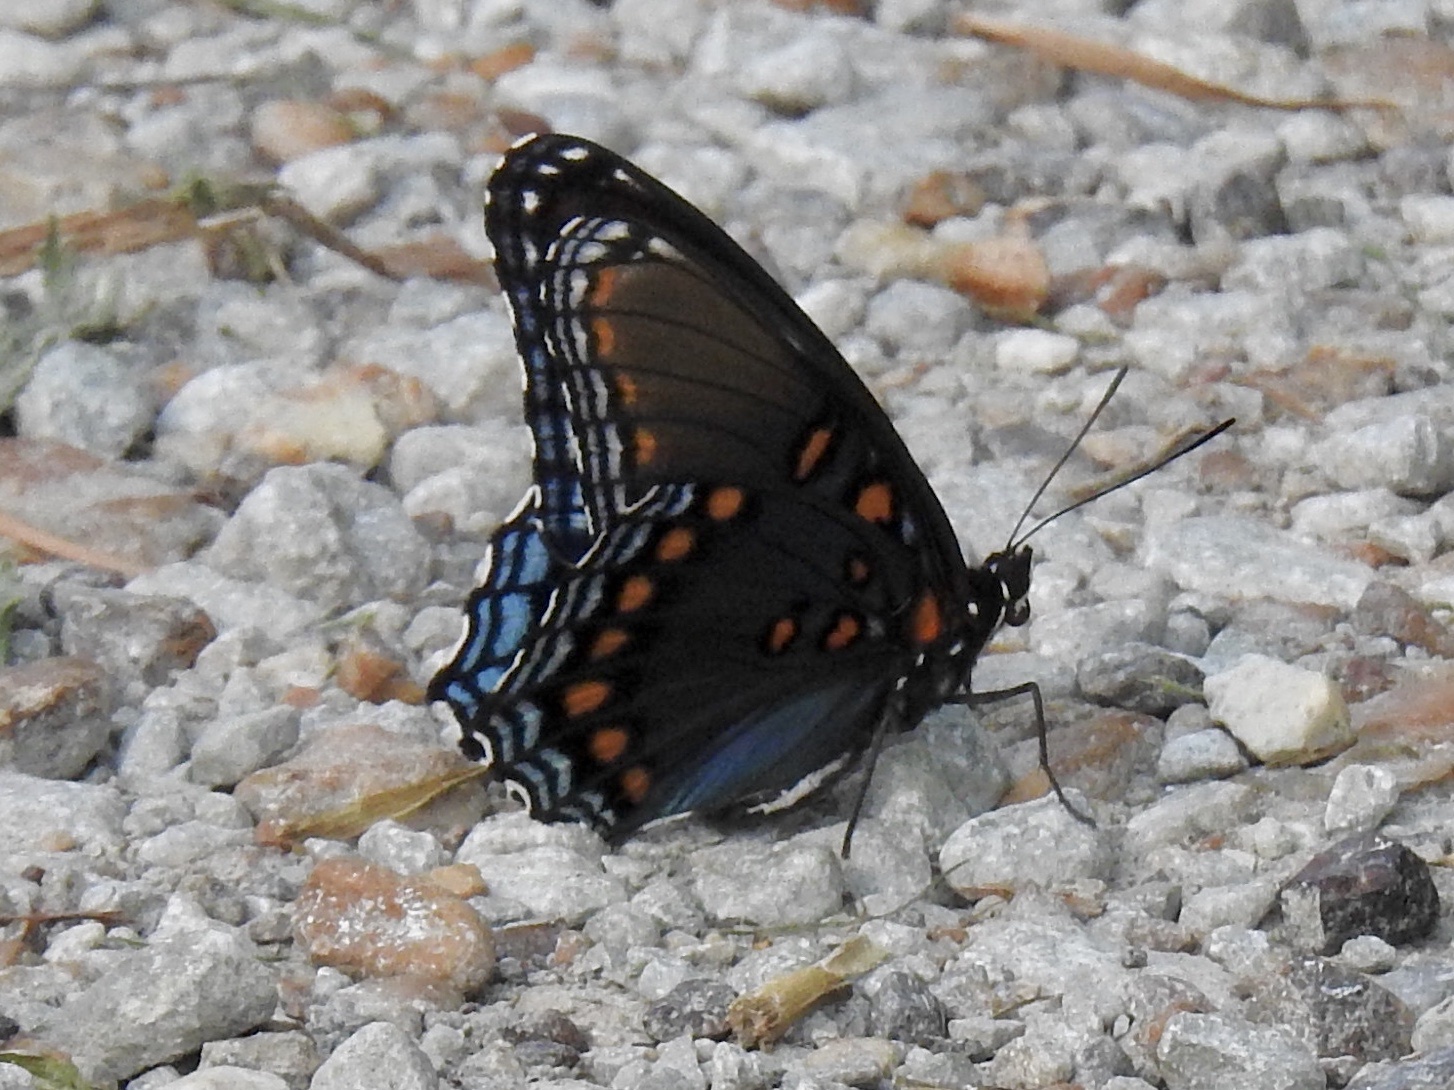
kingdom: Animalia
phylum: Arthropoda
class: Insecta
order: Lepidoptera
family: Nymphalidae
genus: Limenitis
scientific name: Limenitis arthemis
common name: Red-spotted admiral
